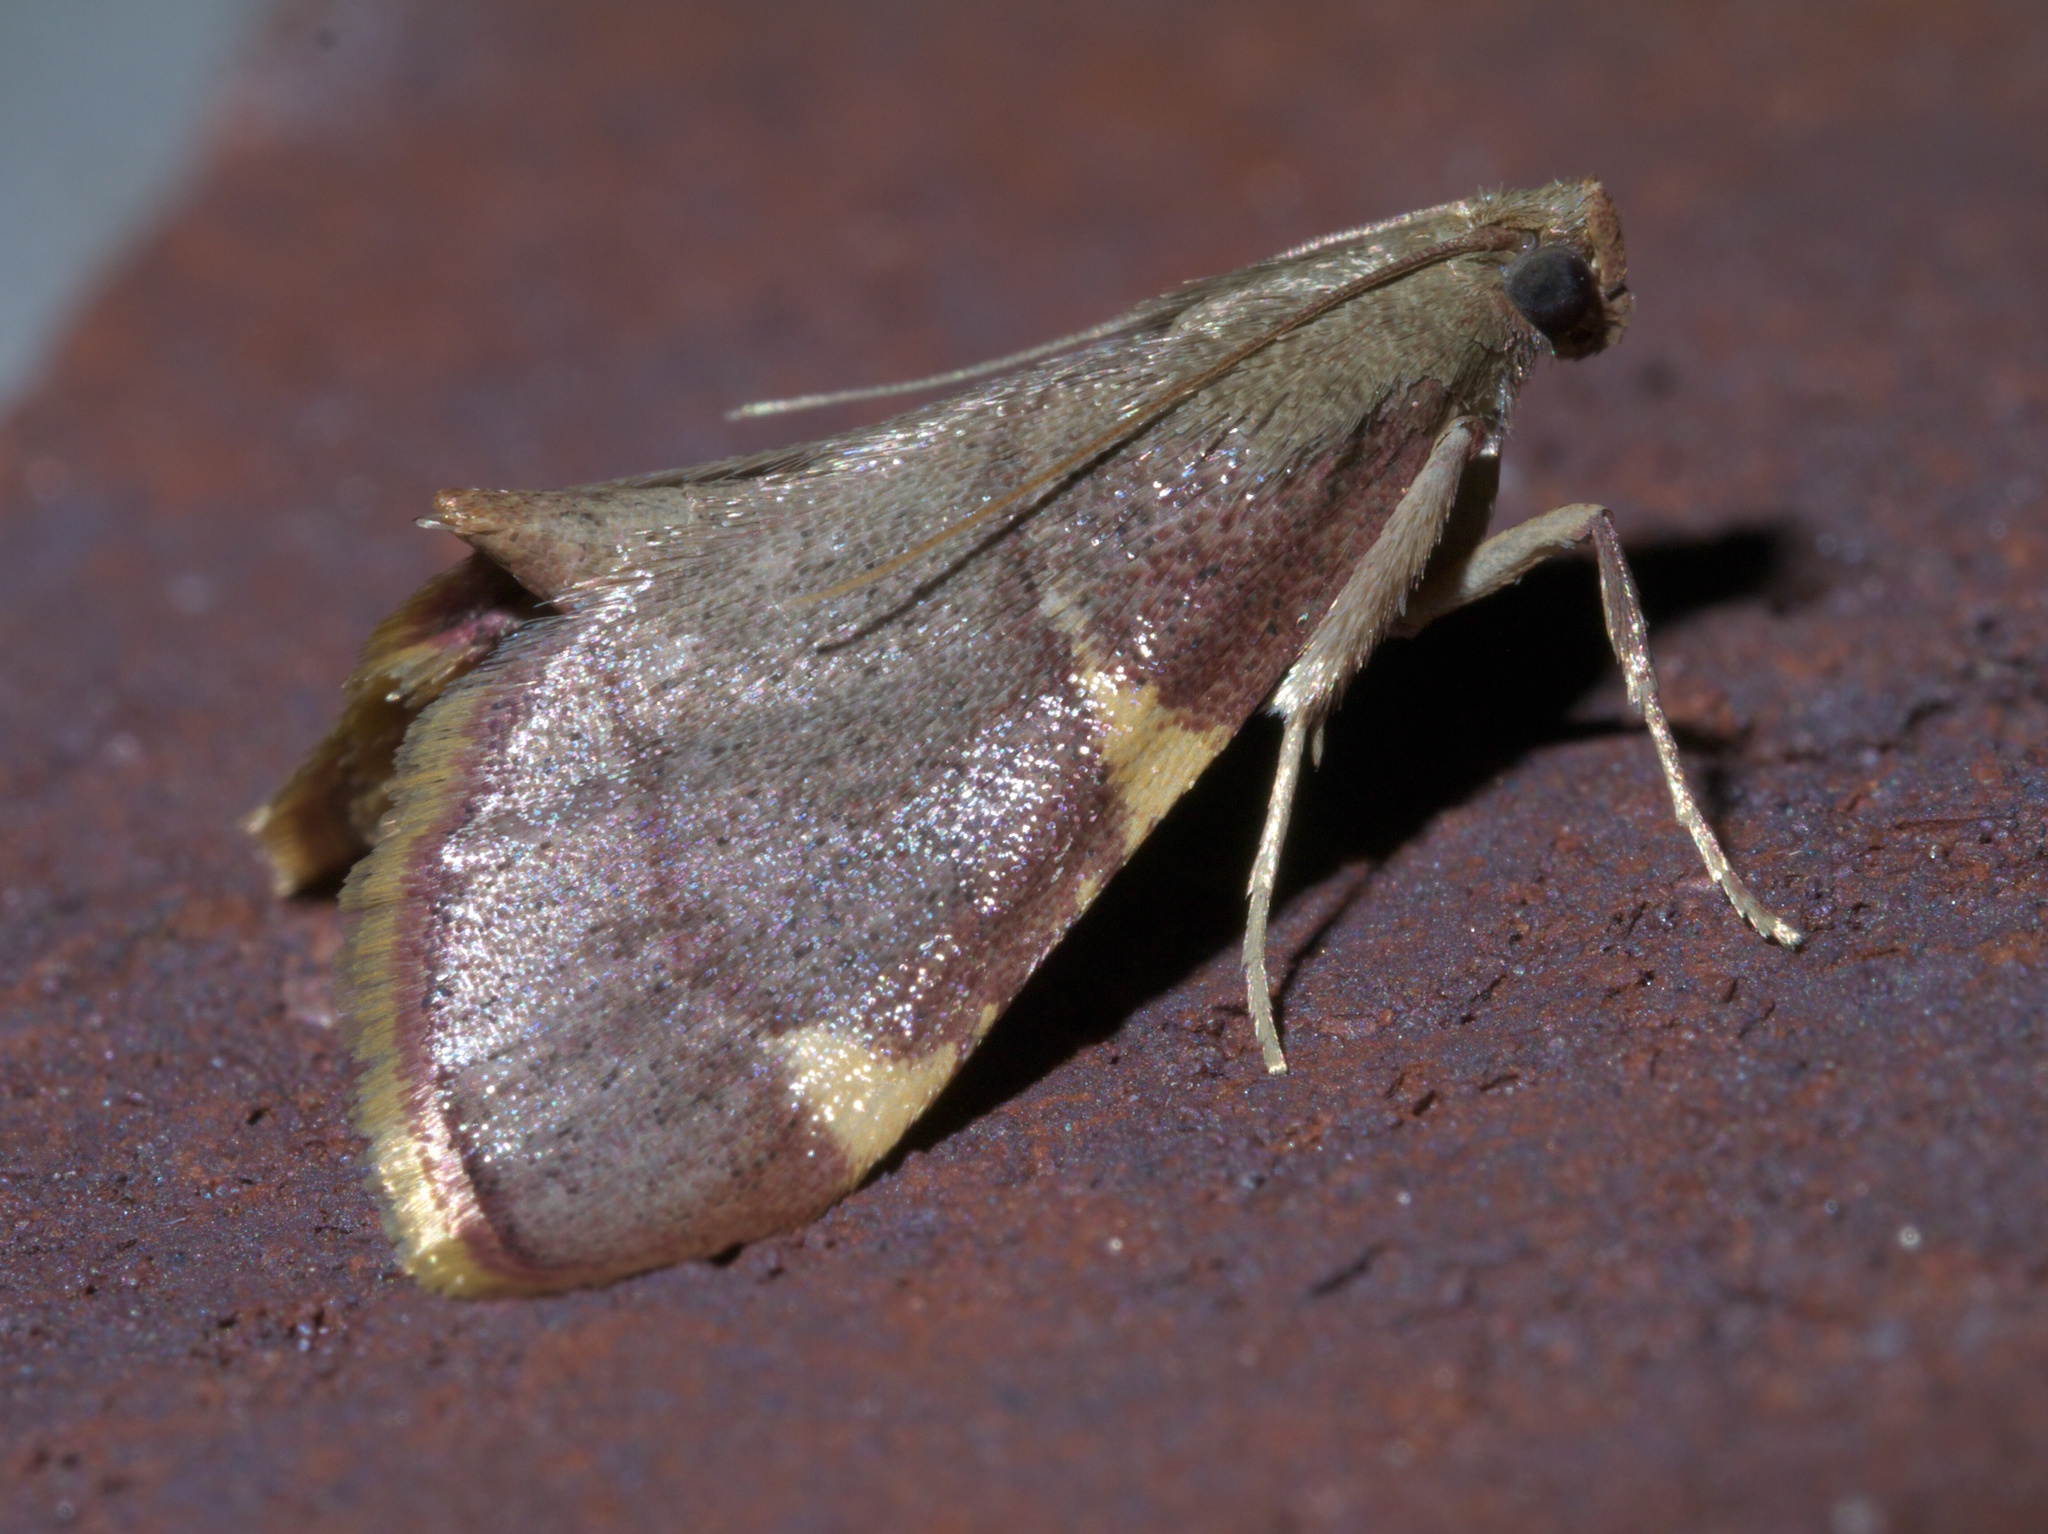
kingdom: Animalia
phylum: Arthropoda
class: Insecta
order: Lepidoptera
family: Pyralidae
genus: Hypsopygia
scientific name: Hypsopygia olinalis
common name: Yellow-fringed dolichomia moth
